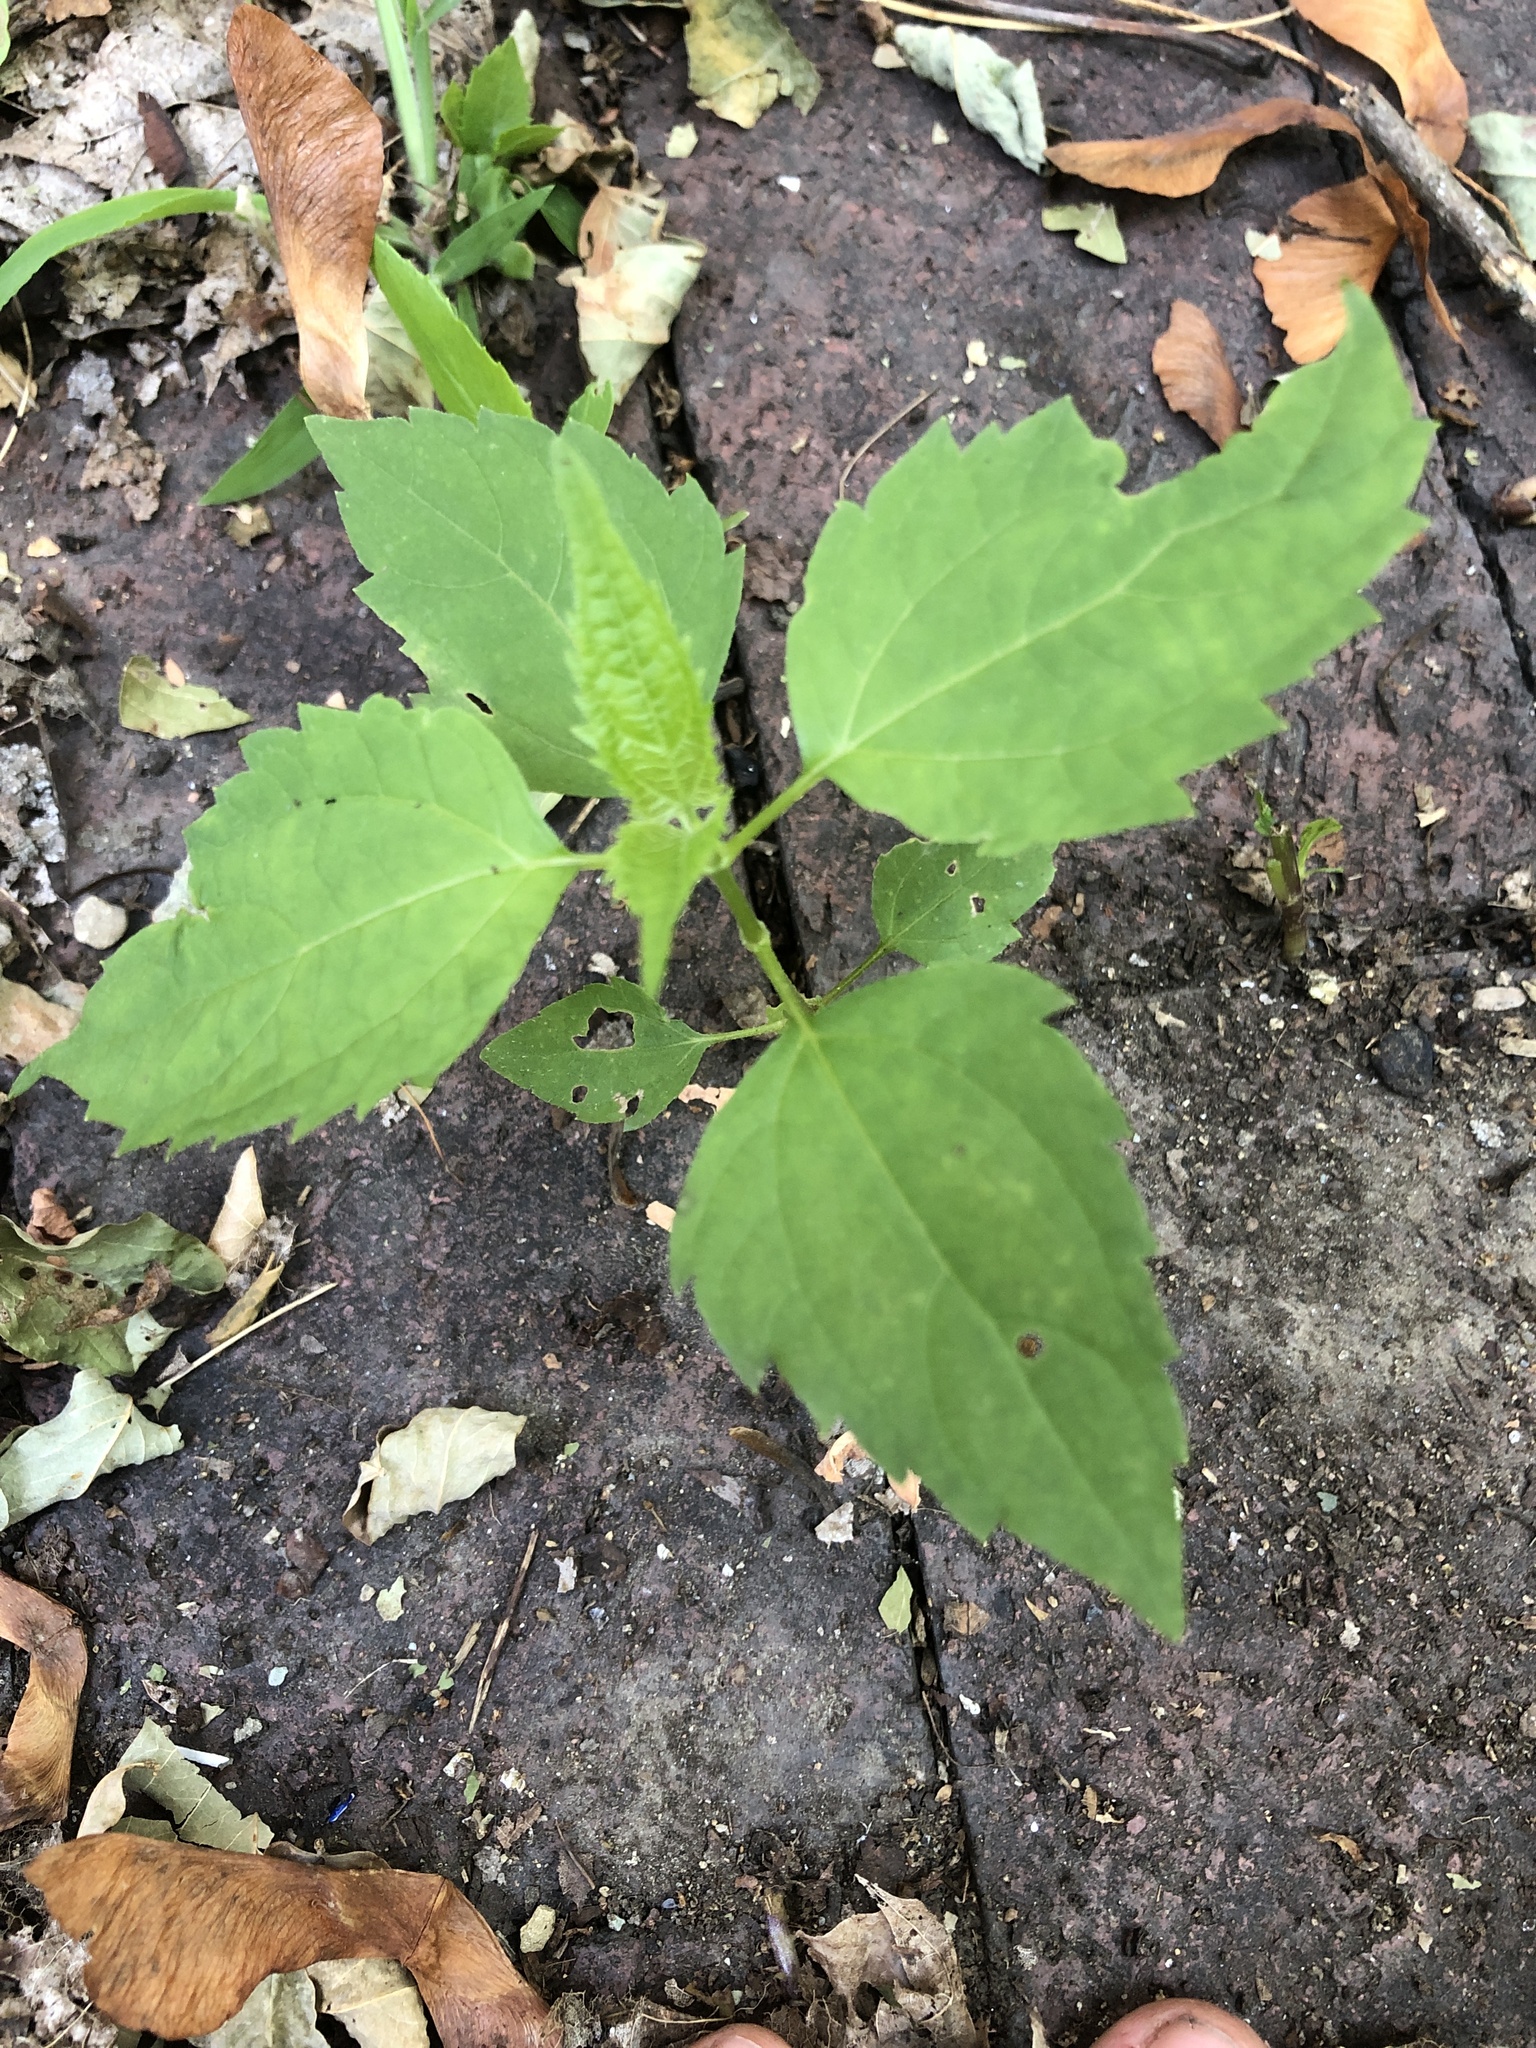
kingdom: Plantae
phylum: Tracheophyta
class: Magnoliopsida
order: Asterales
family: Asteraceae
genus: Ageratina
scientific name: Ageratina altissima
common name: White snakeroot
